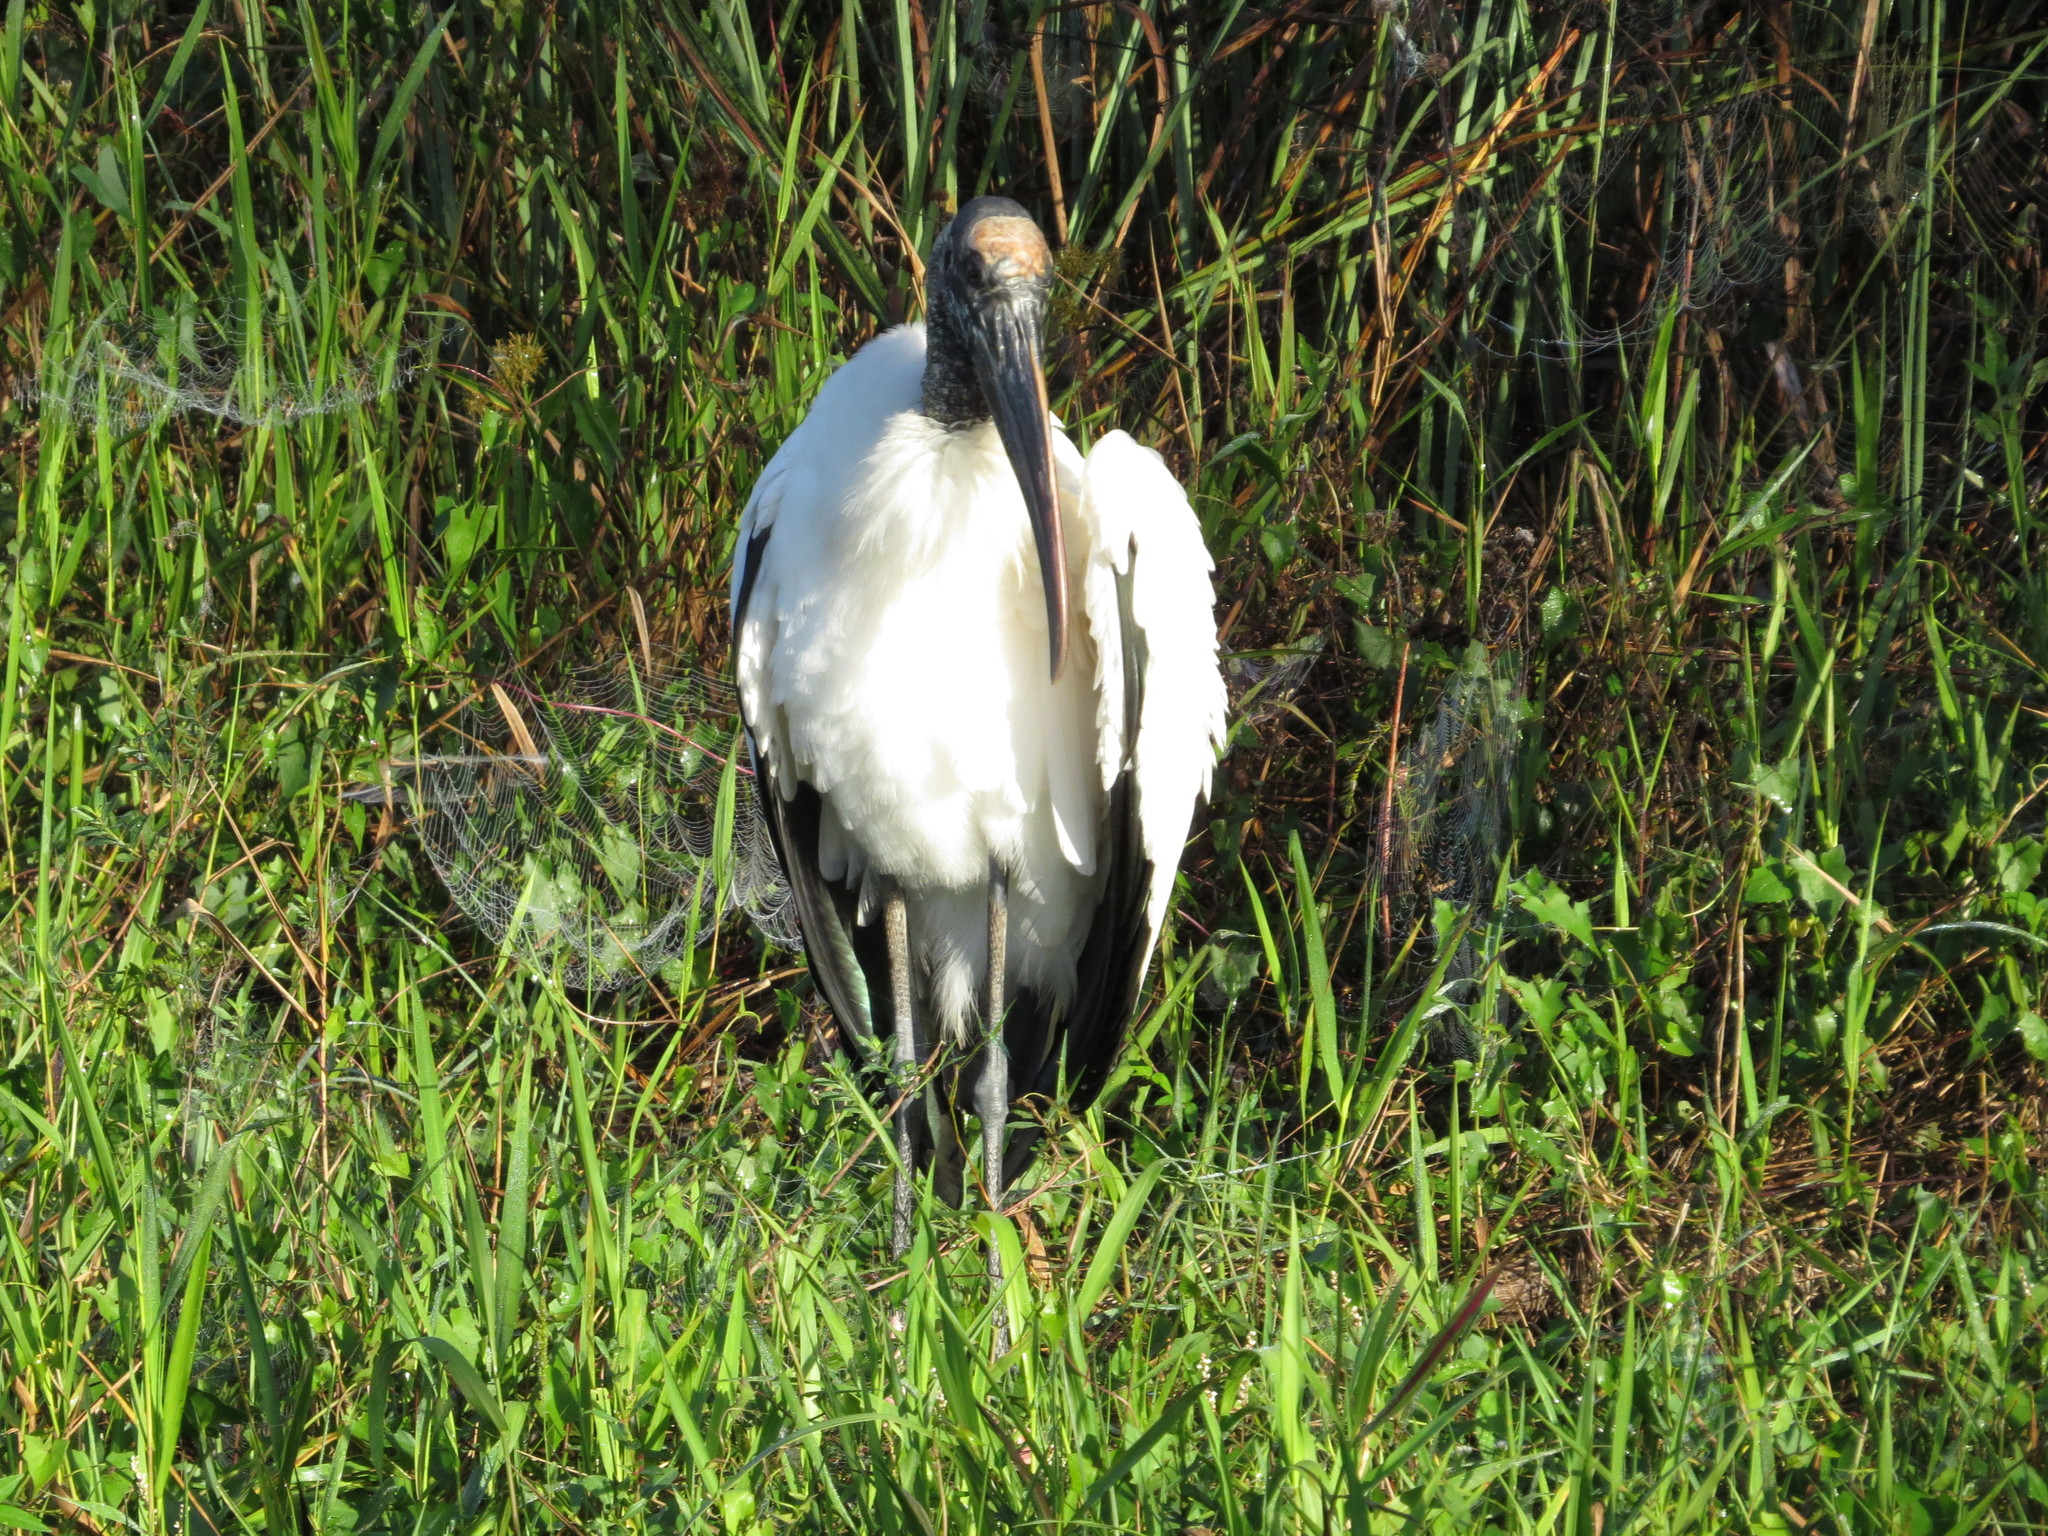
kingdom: Animalia
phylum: Chordata
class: Aves
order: Ciconiiformes
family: Ciconiidae
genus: Mycteria
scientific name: Mycteria americana
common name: Wood stork
